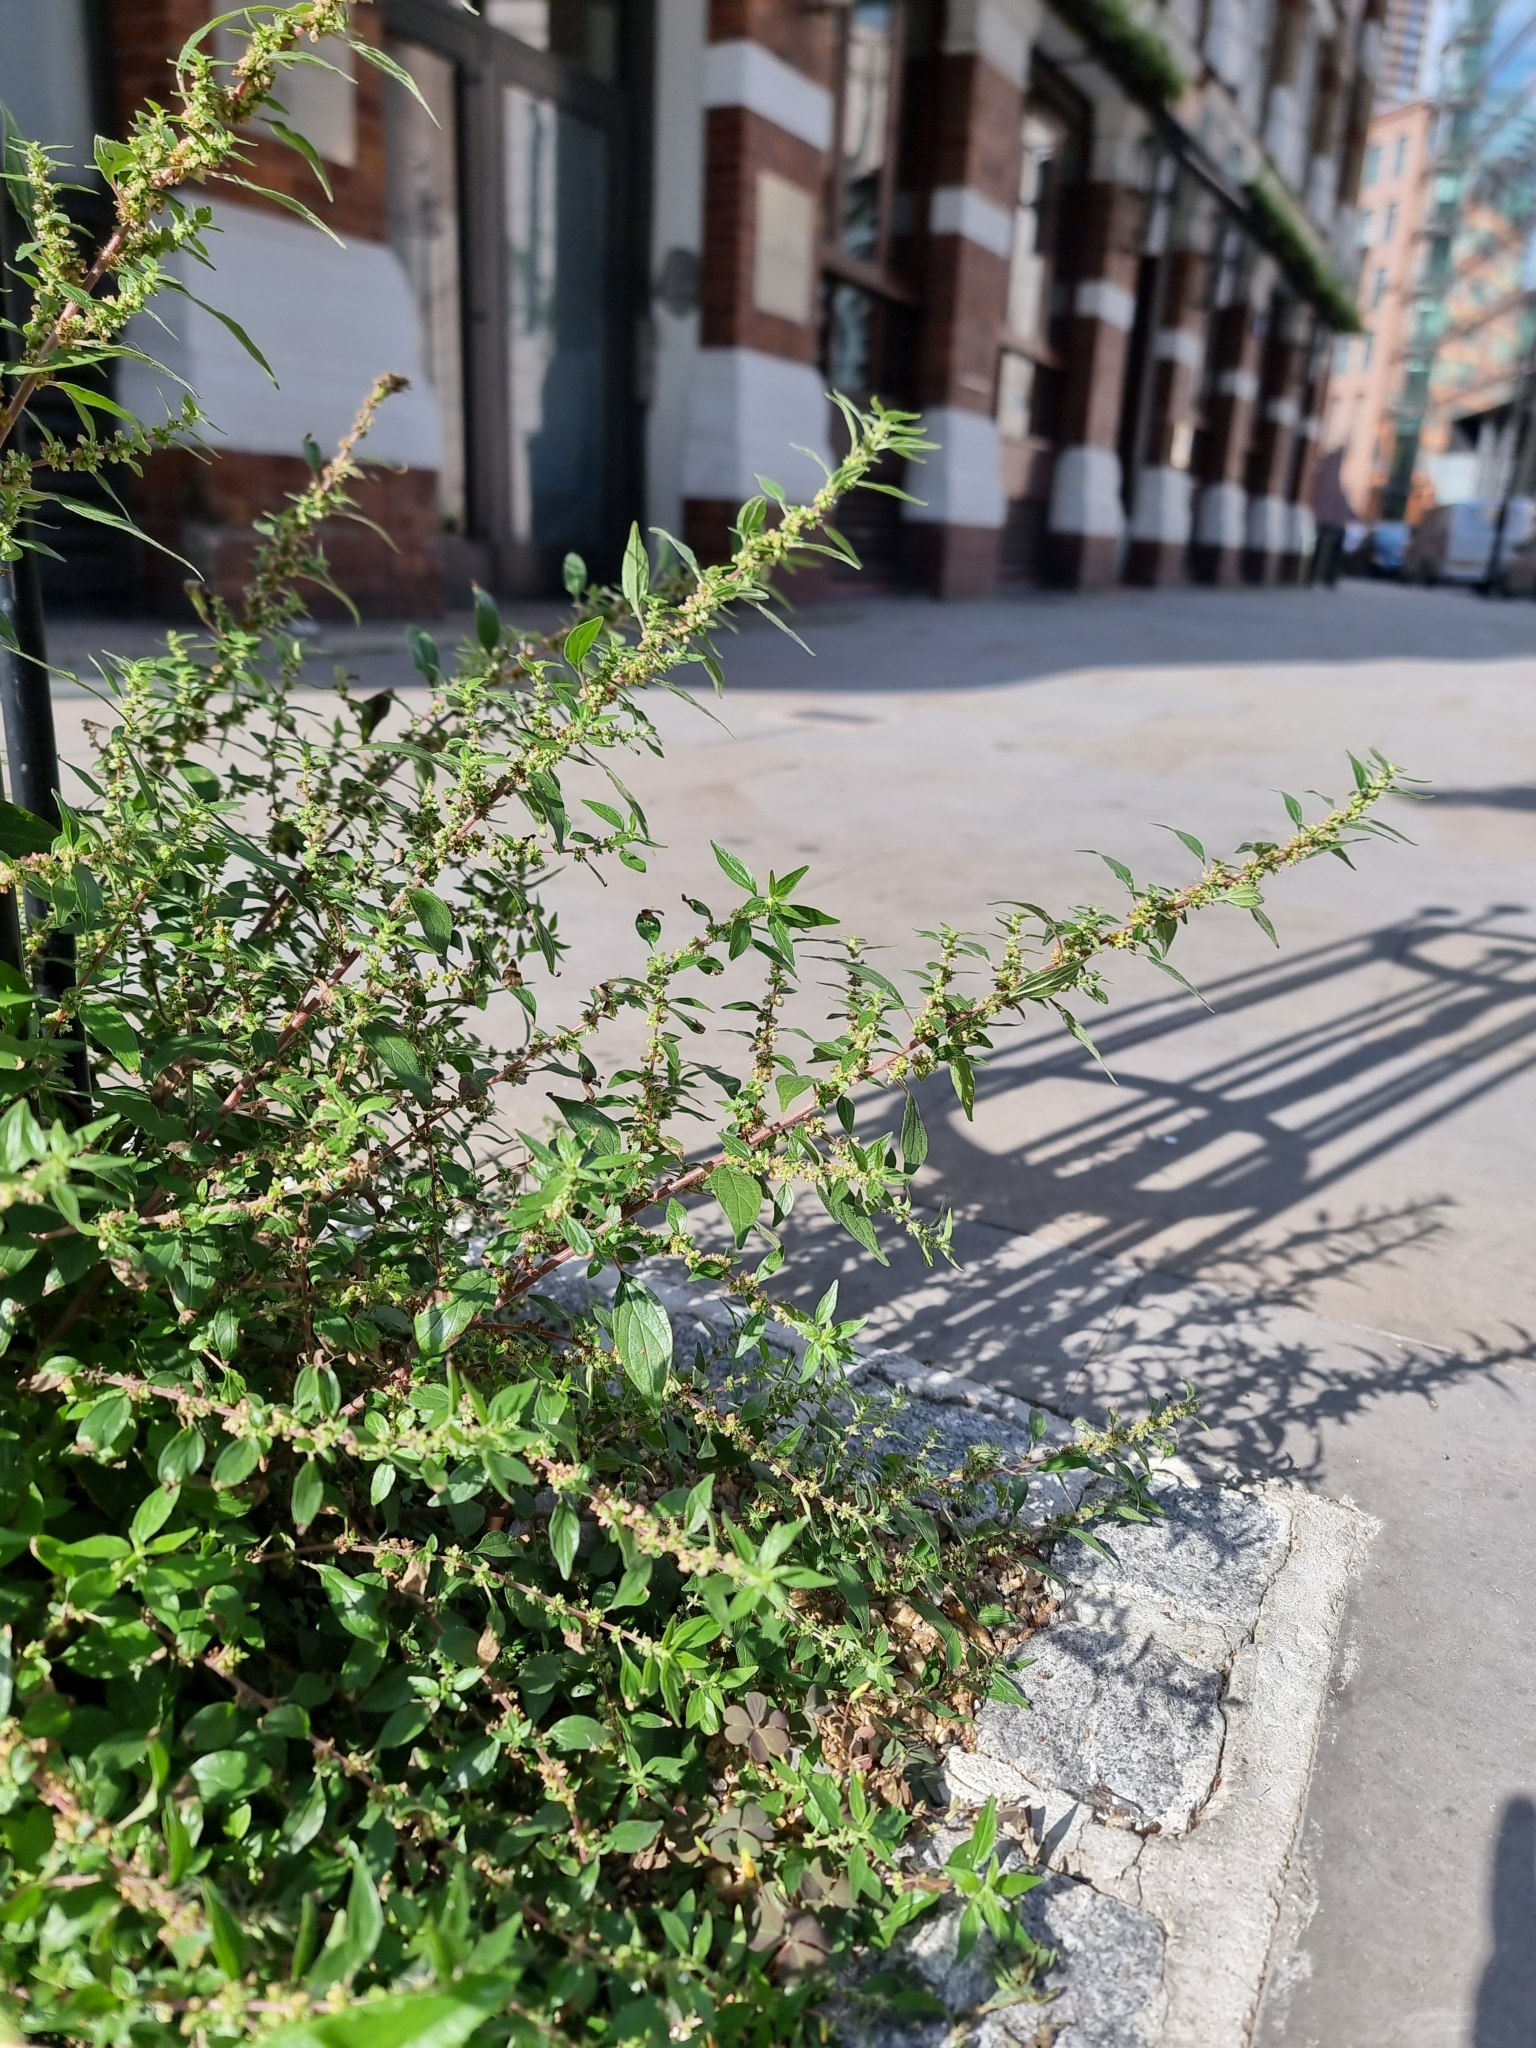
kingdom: Plantae
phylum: Tracheophyta
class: Magnoliopsida
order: Rosales
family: Urticaceae
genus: Parietaria
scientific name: Parietaria judaica
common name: Pellitory-of-the-wall
